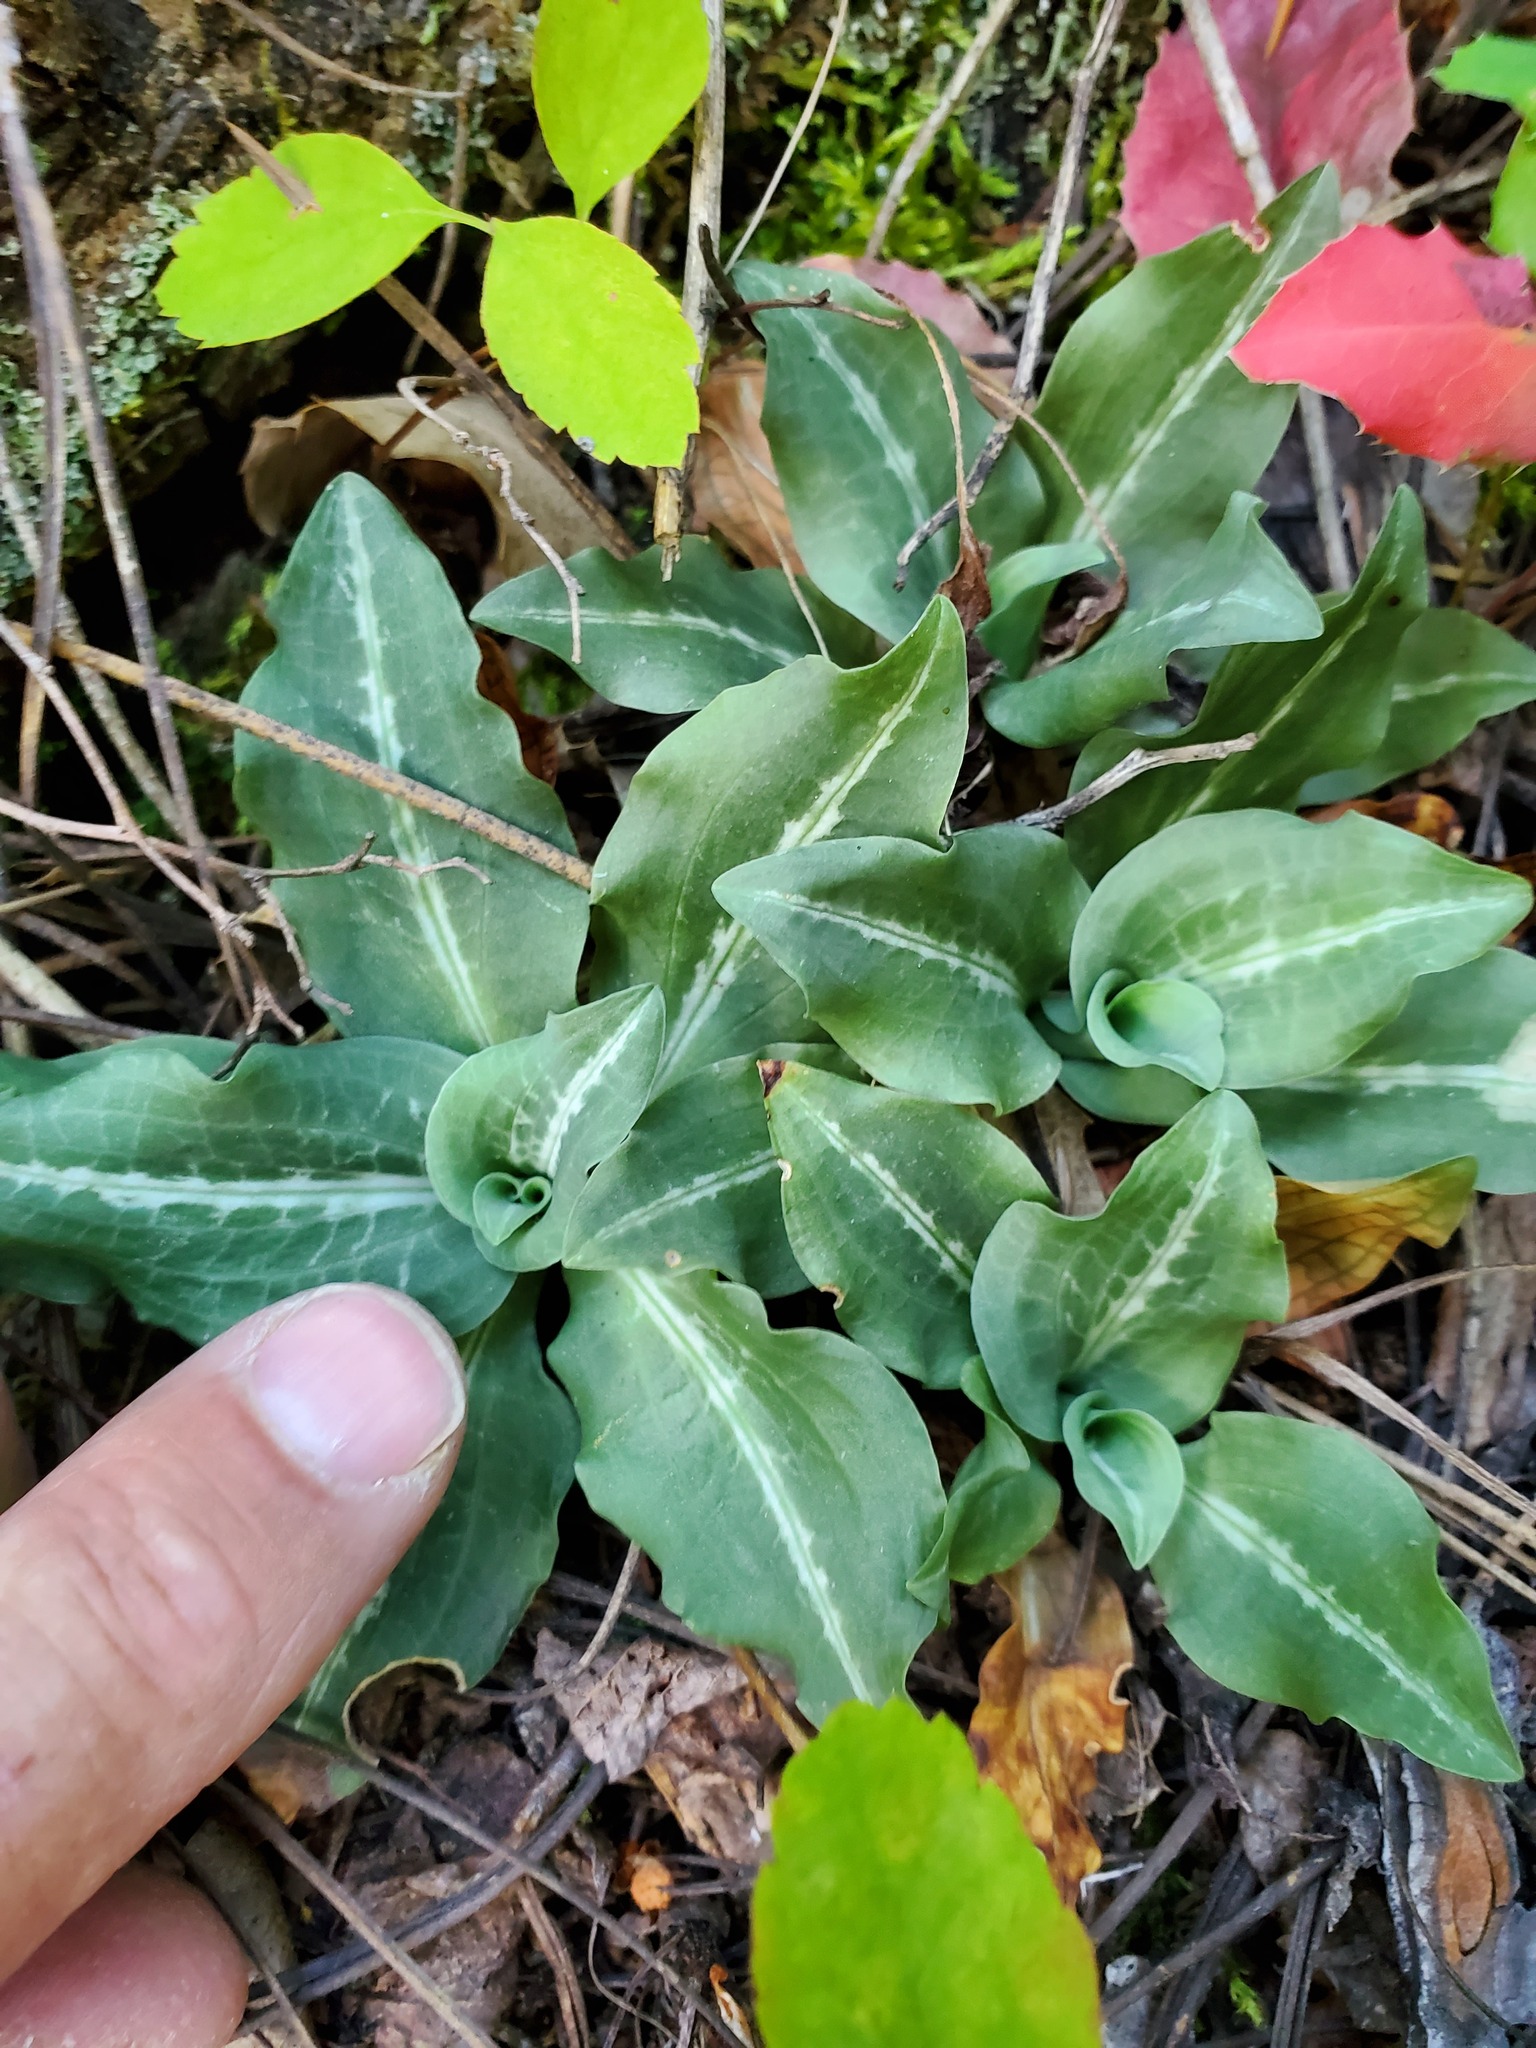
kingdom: Plantae
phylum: Tracheophyta
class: Liliopsida
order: Asparagales
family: Orchidaceae
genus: Goodyera
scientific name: Goodyera oblongifolia
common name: Giant rattlesnake-plantain
